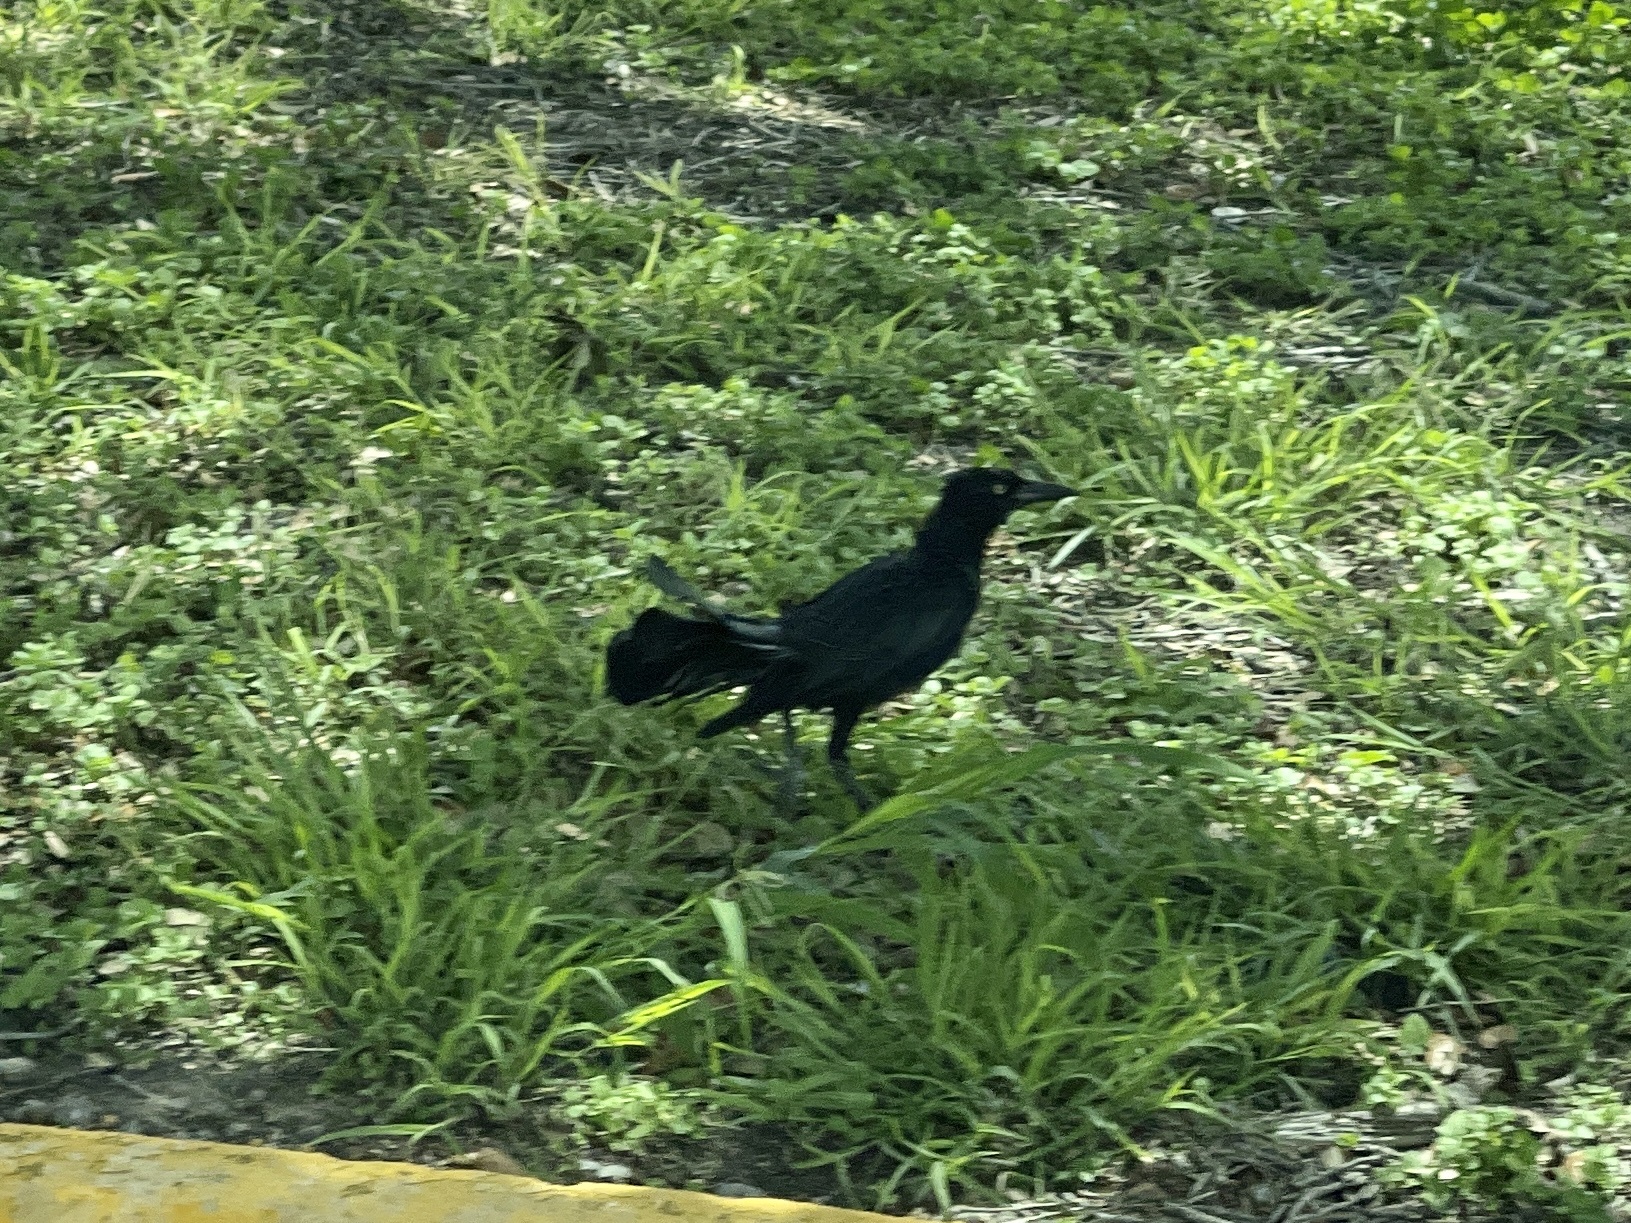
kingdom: Animalia
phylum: Chordata
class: Aves
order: Passeriformes
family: Icteridae
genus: Quiscalus
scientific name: Quiscalus mexicanus
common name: Great-tailed grackle
